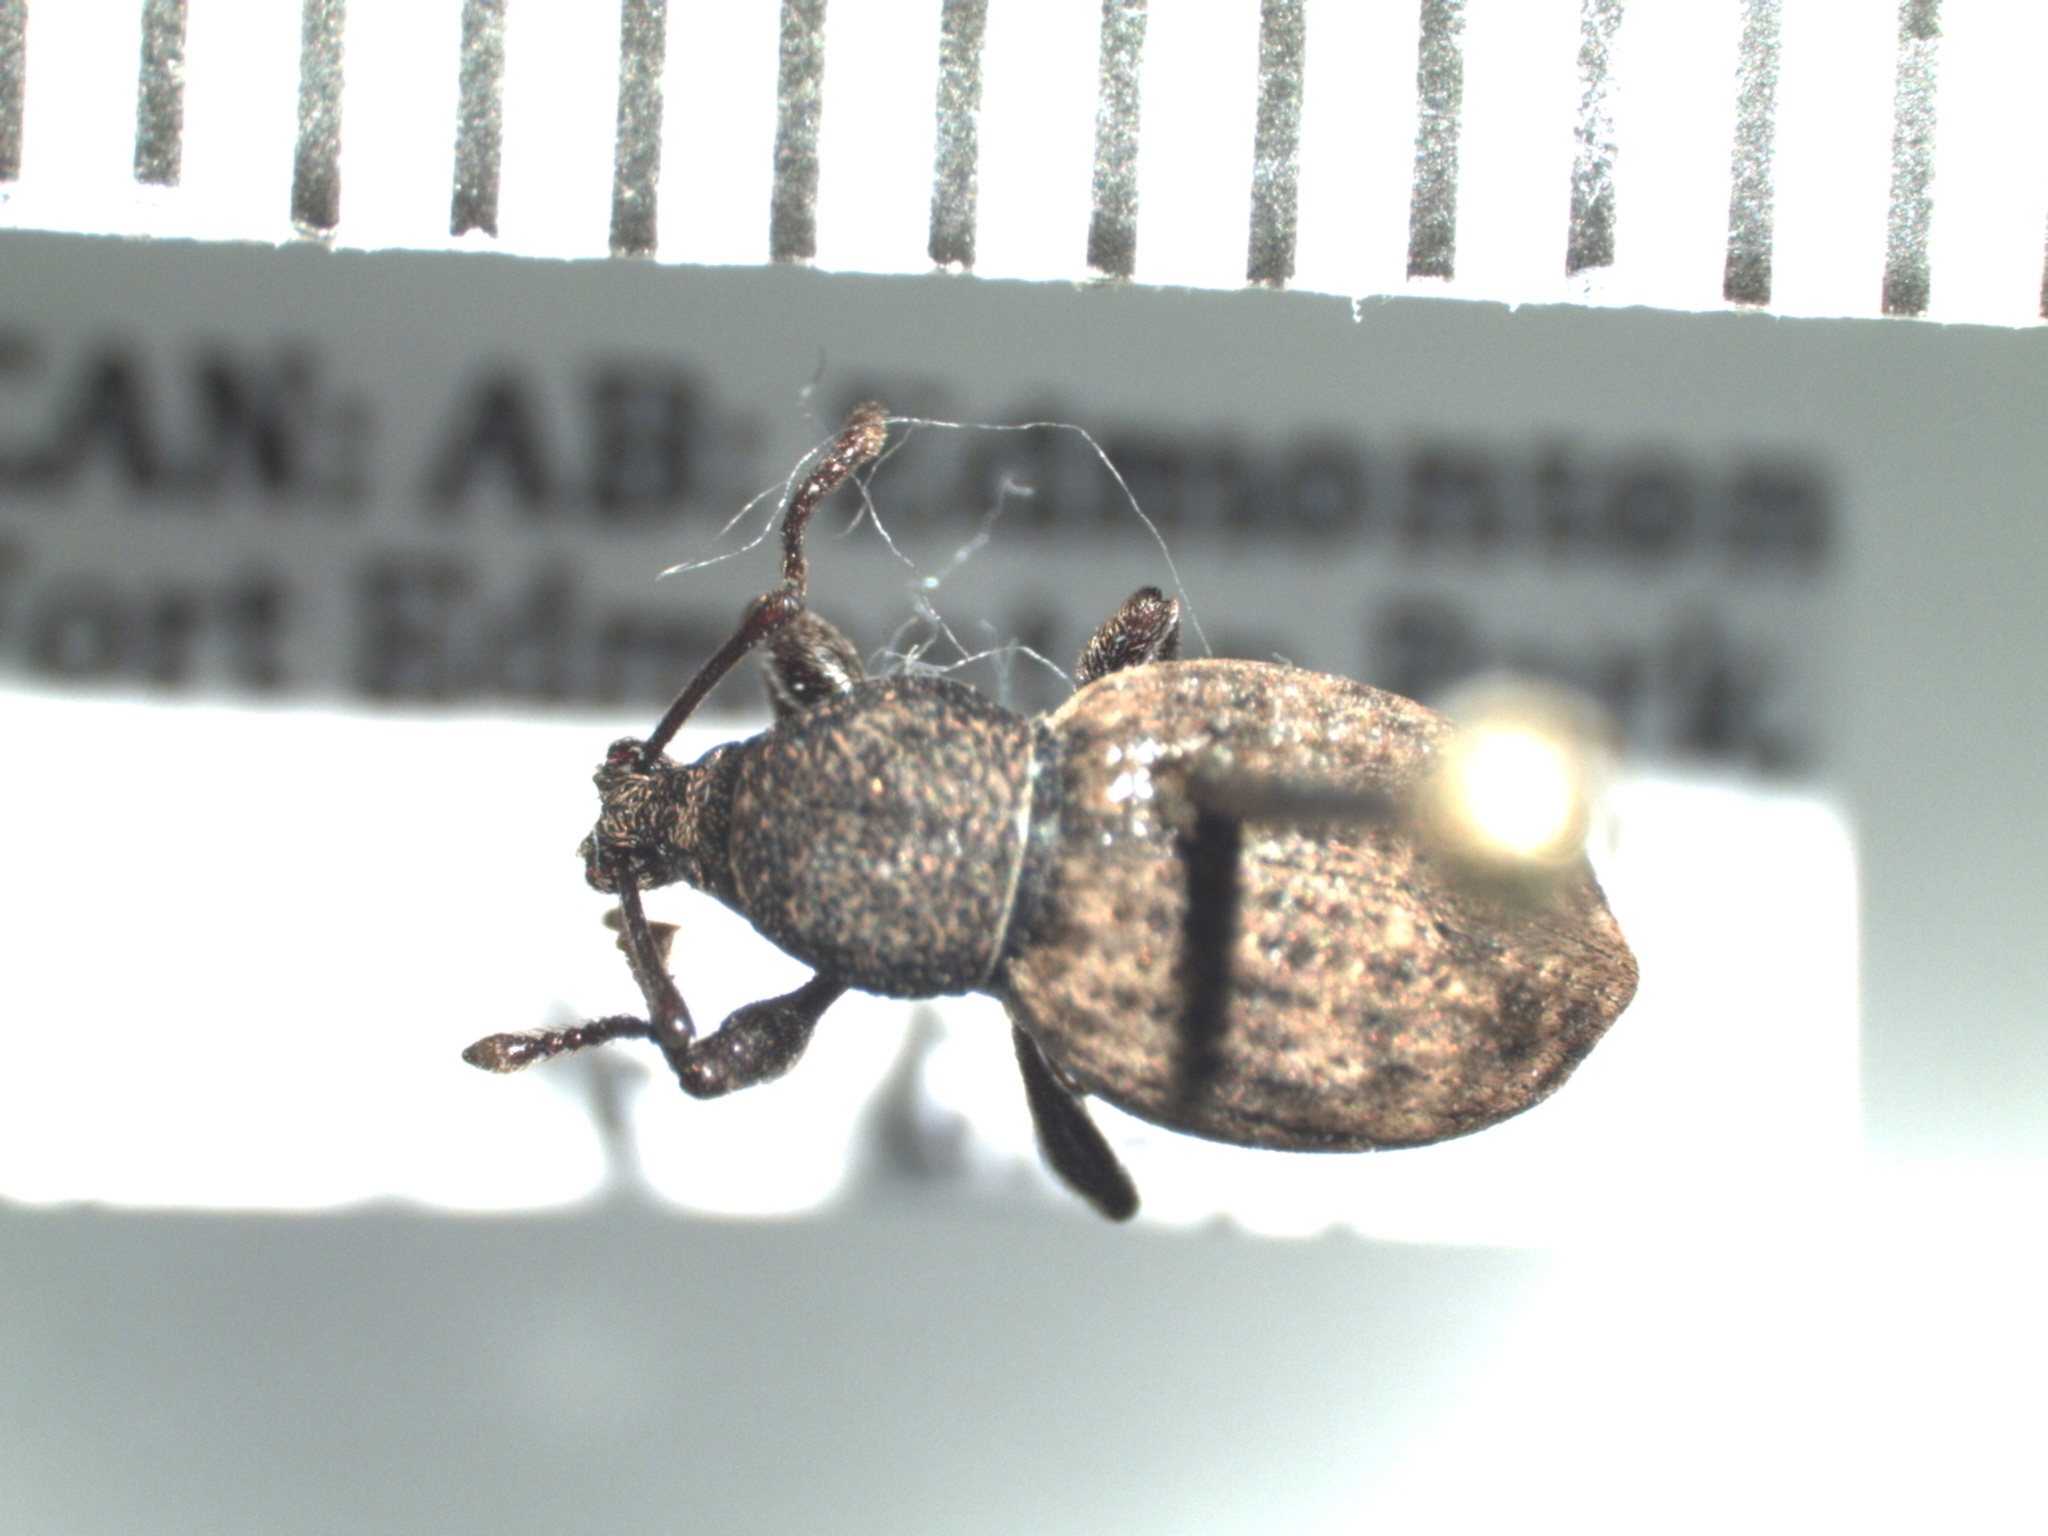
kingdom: Animalia
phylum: Arthropoda
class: Insecta
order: Coleoptera
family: Curculionidae
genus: Otiorhynchus
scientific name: Otiorhynchus raucus
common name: Weevil
